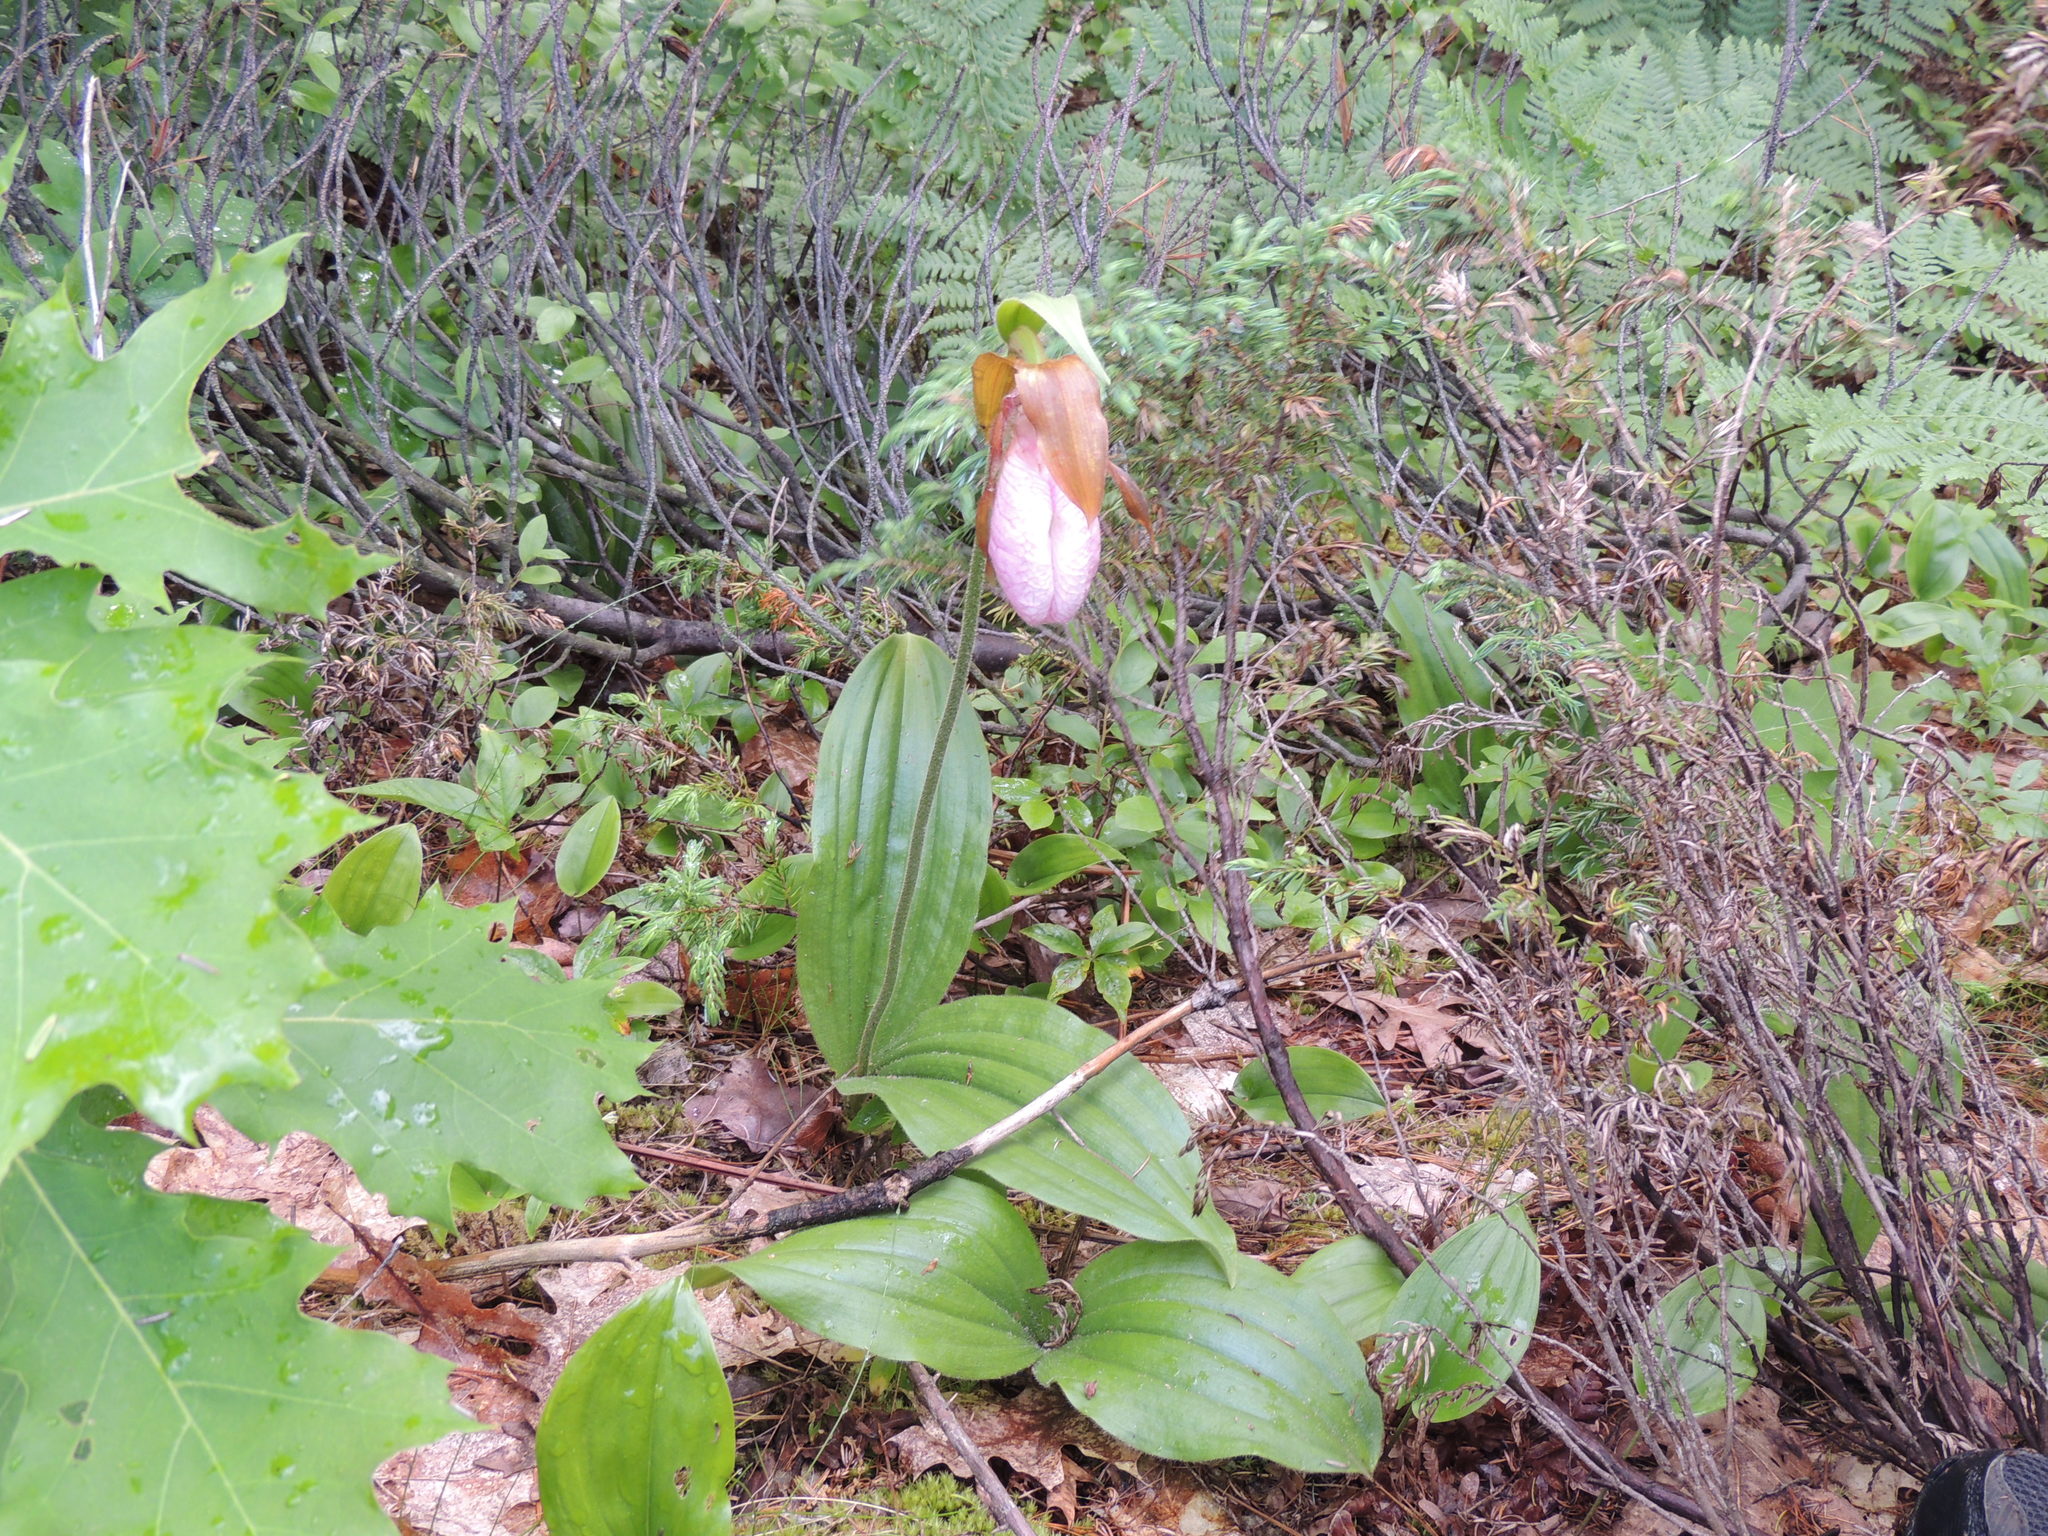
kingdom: Plantae
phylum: Tracheophyta
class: Liliopsida
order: Asparagales
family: Orchidaceae
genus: Cypripedium
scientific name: Cypripedium acaule
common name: Pink lady's-slipper
